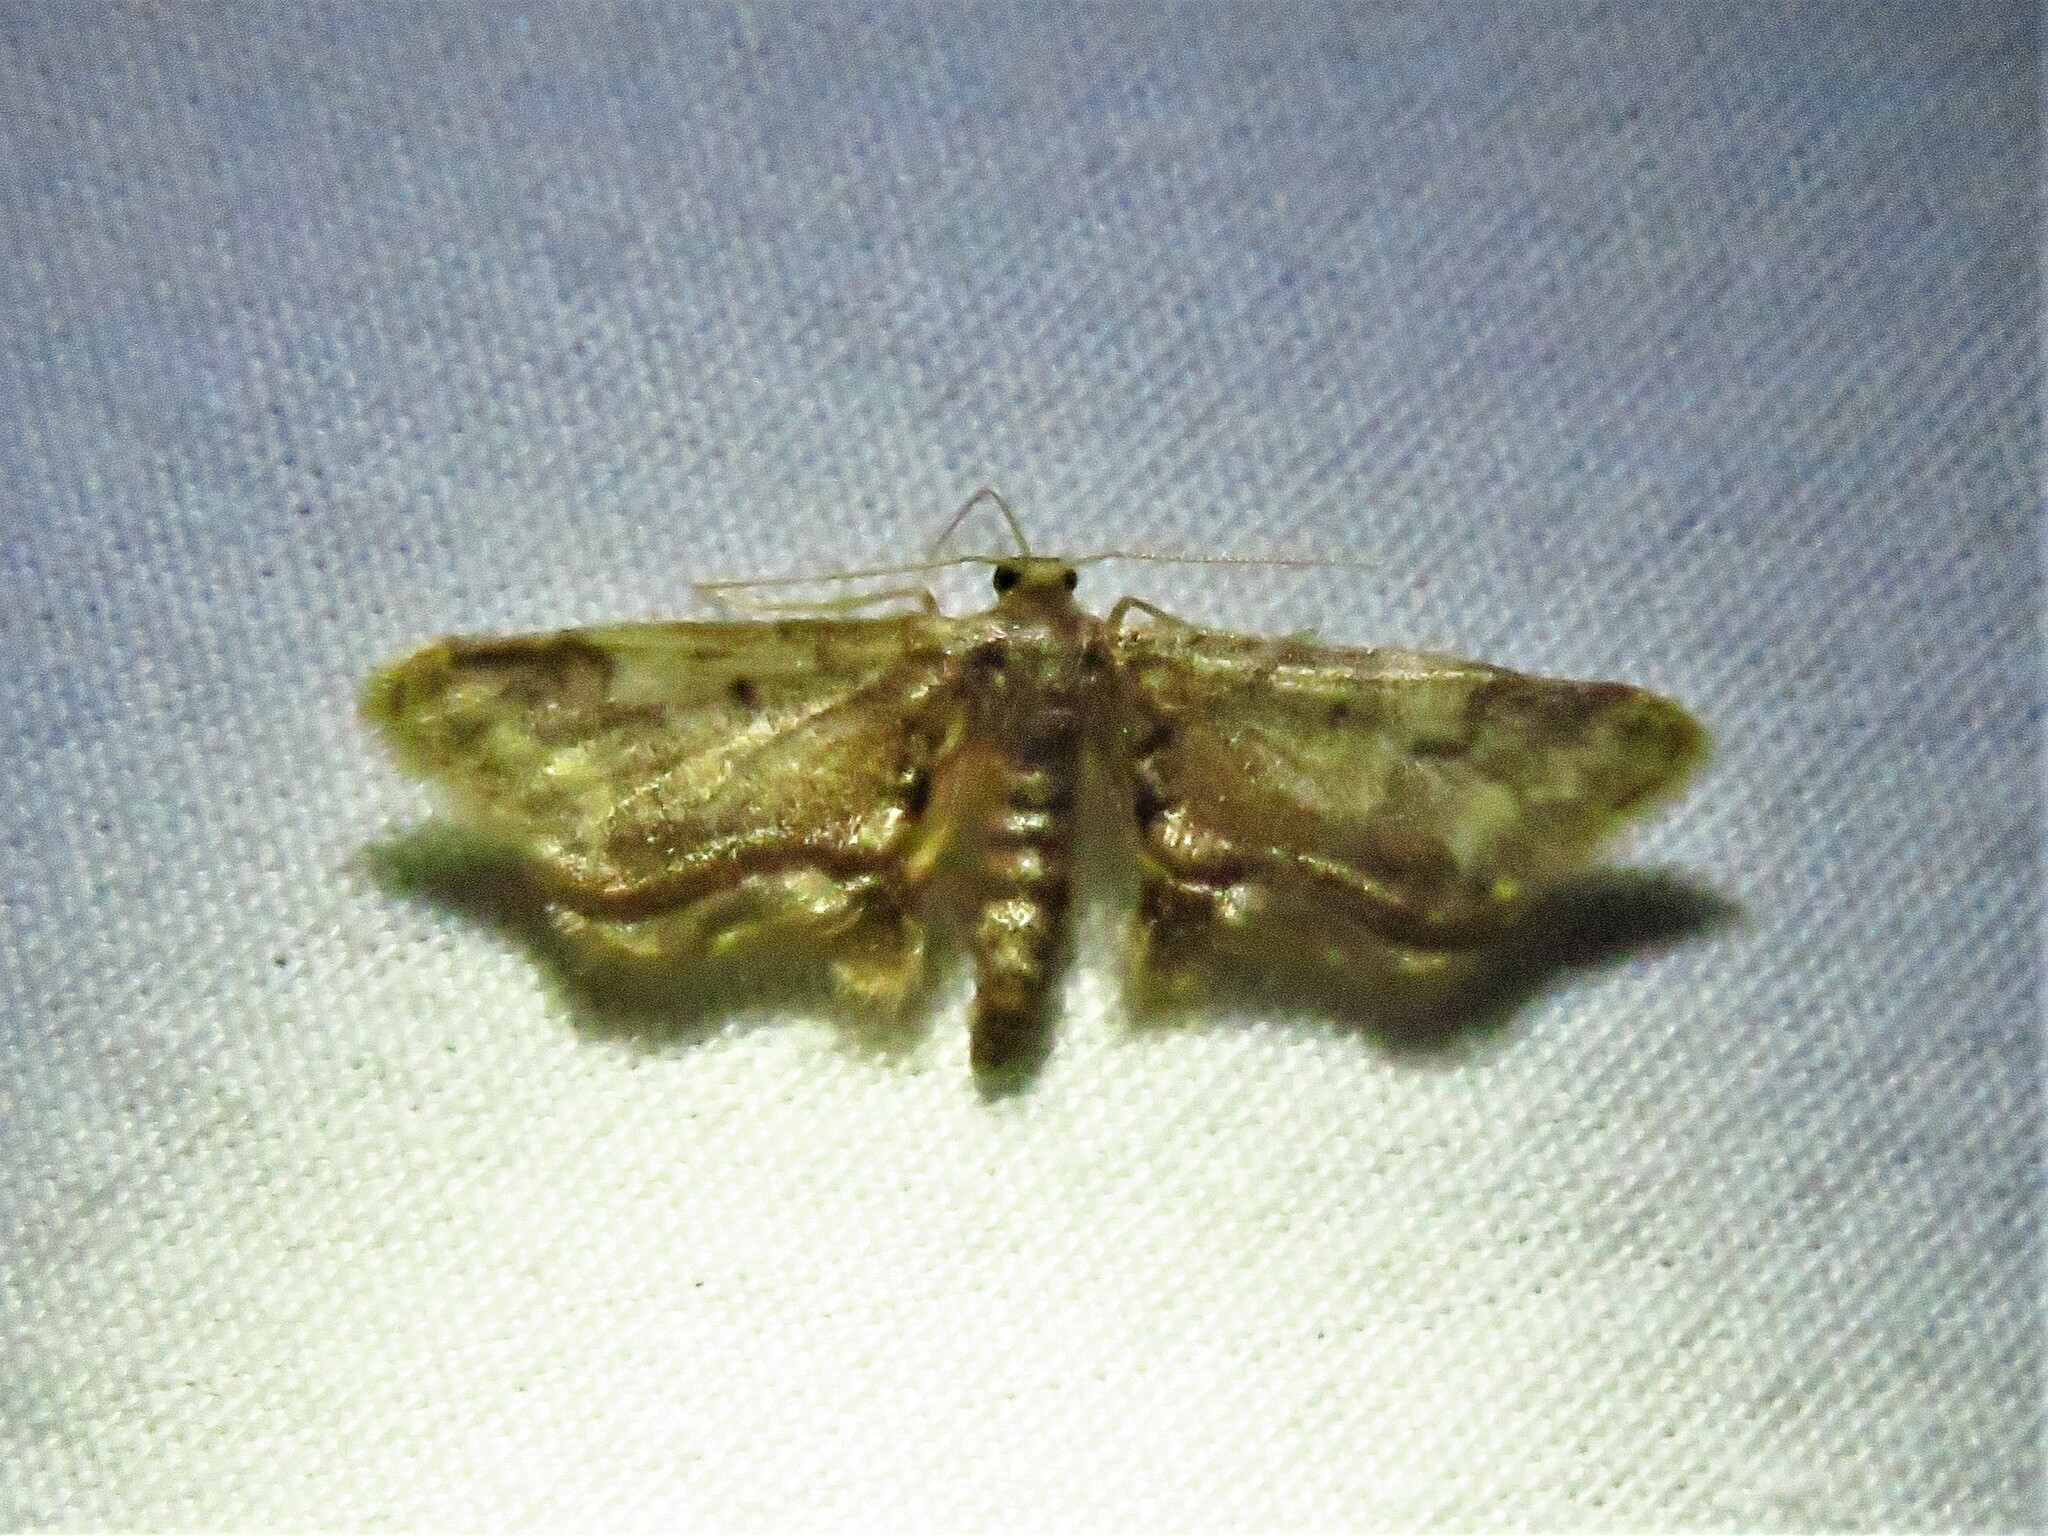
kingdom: Animalia
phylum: Arthropoda
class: Insecta
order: Lepidoptera
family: Geometridae
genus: Idaea
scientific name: Idaea furciferata
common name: Notch-winged wave
